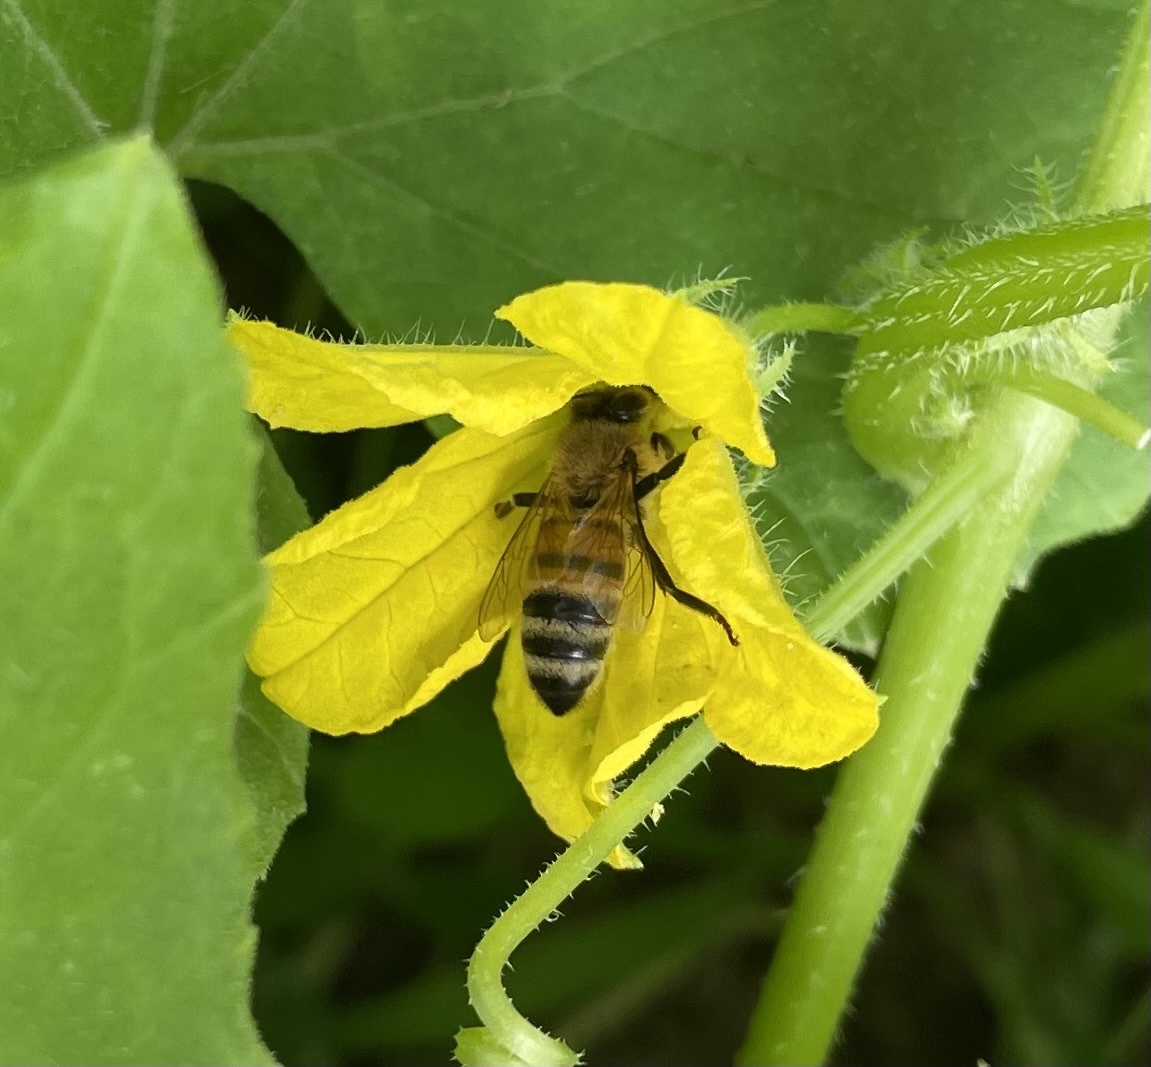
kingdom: Animalia
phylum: Arthropoda
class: Insecta
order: Hymenoptera
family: Apidae
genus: Apis
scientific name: Apis mellifera
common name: Honey bee
